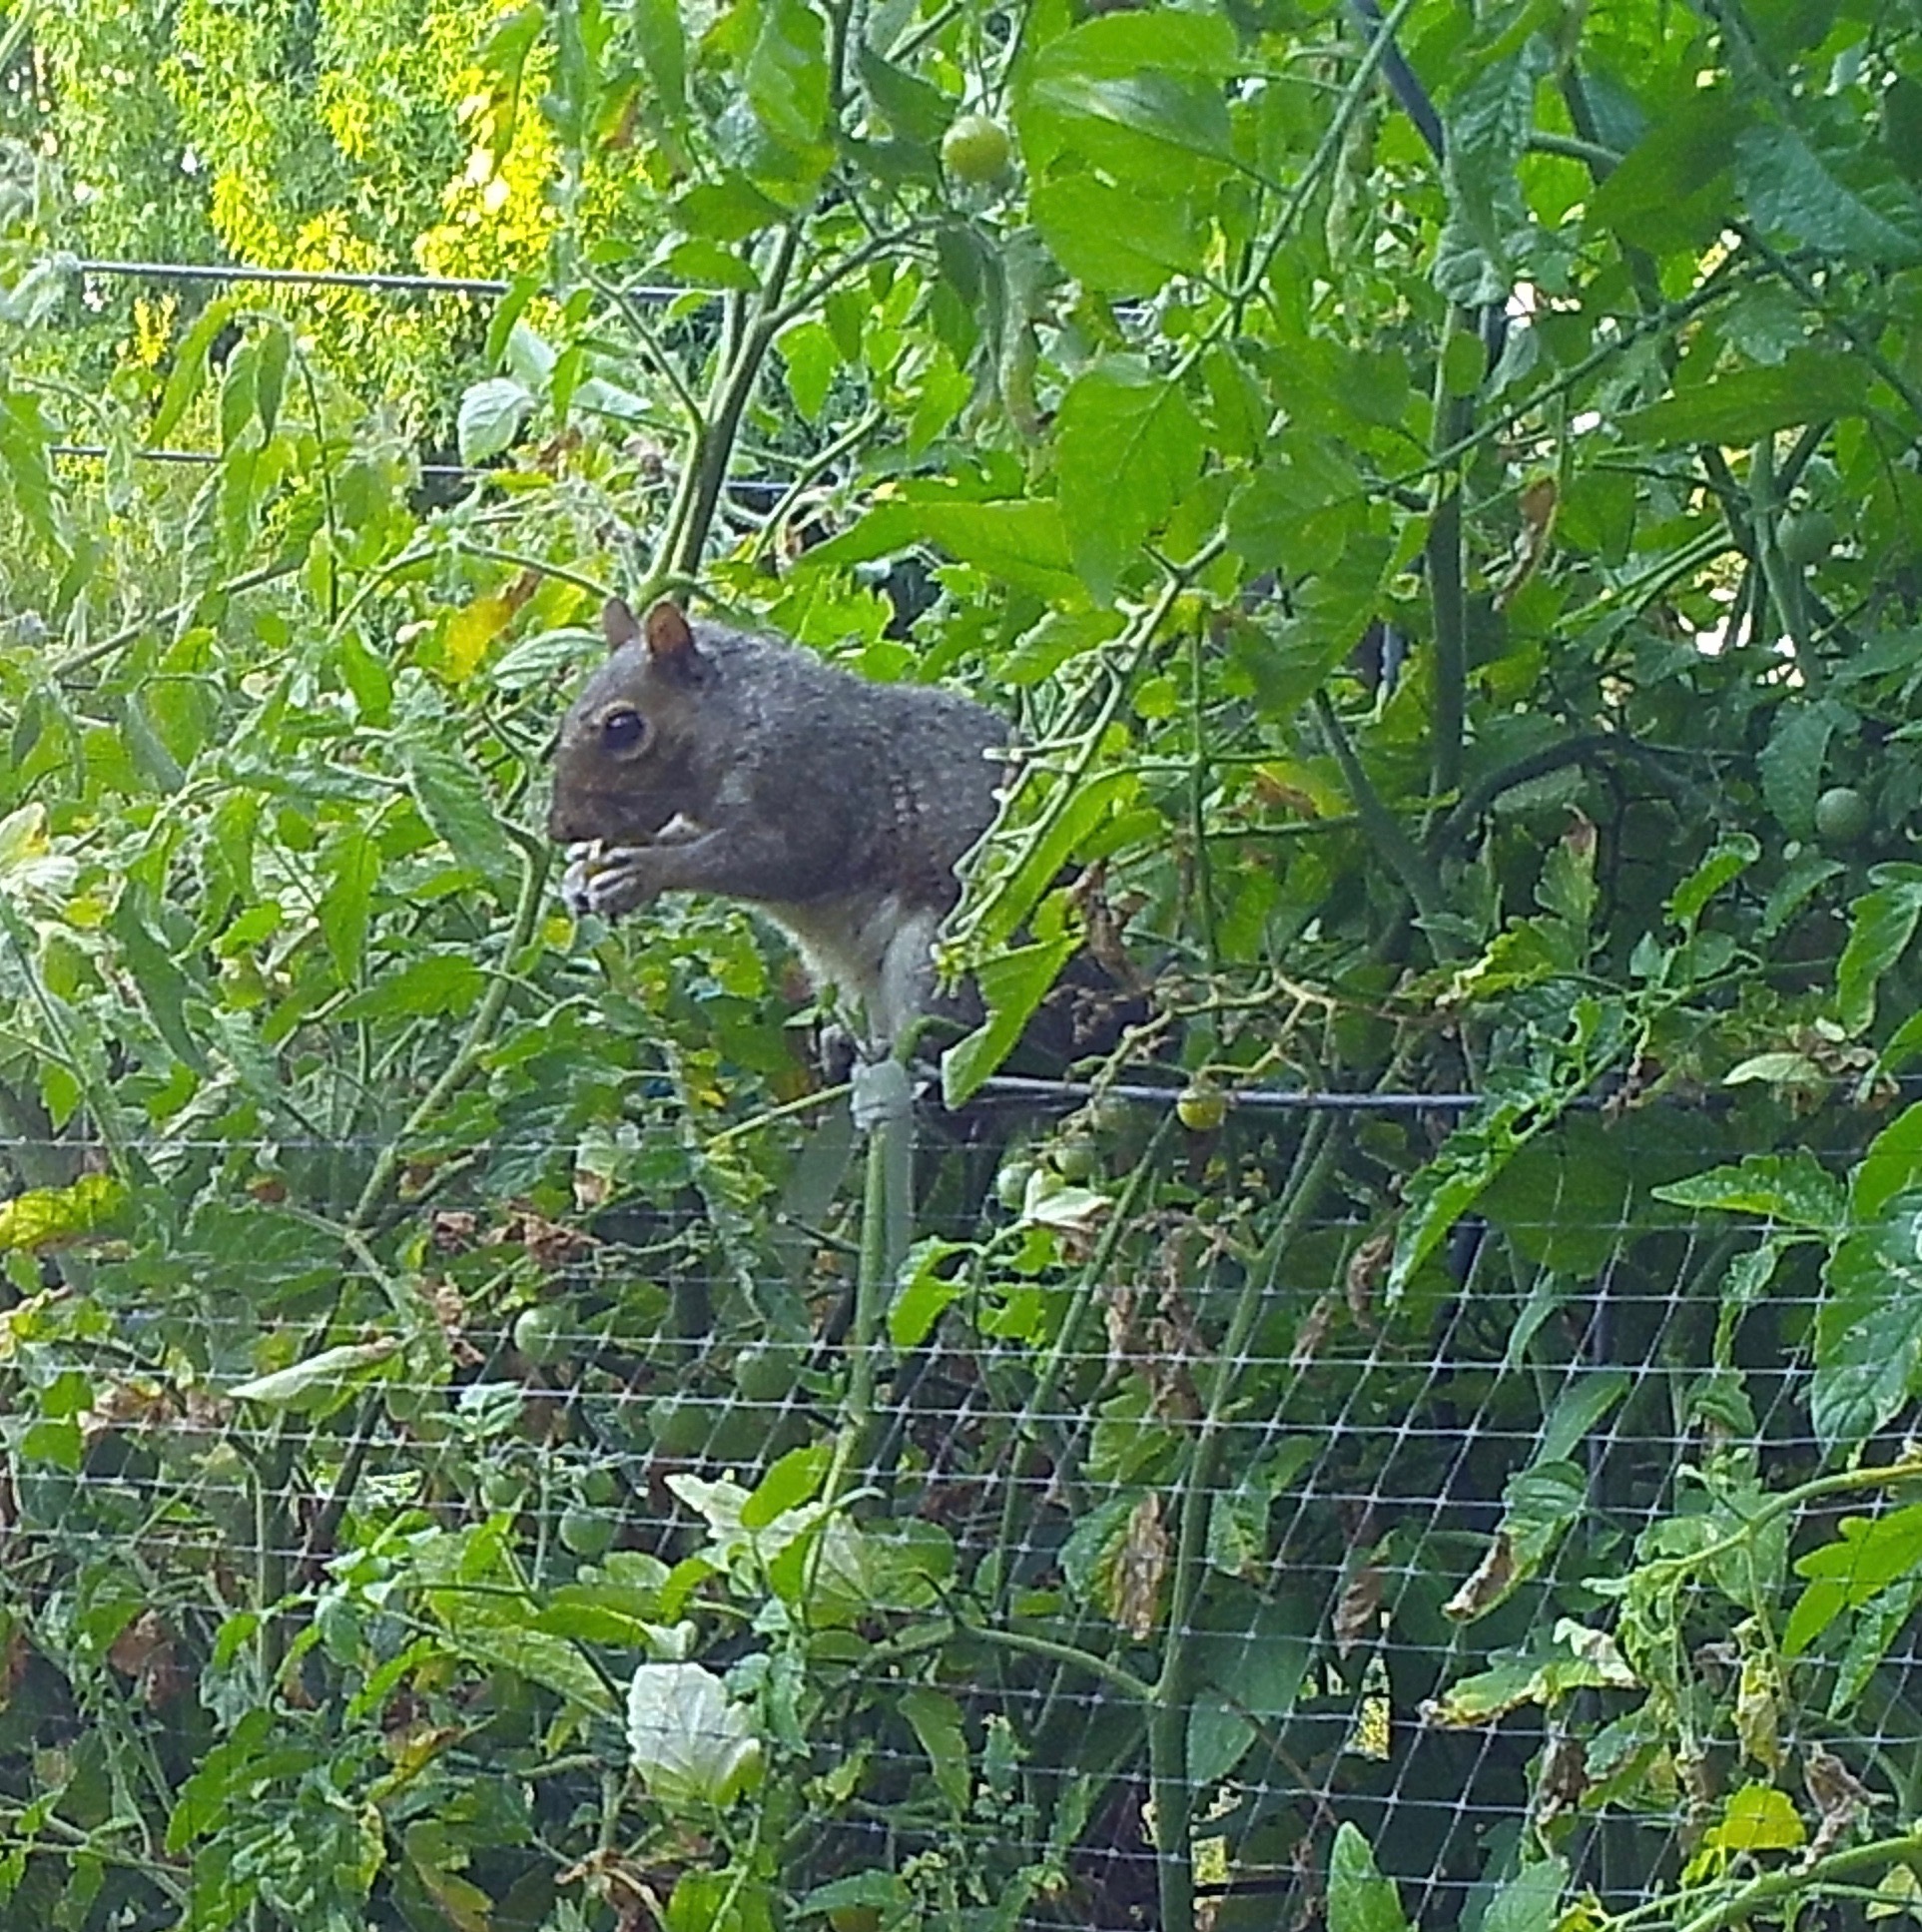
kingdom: Animalia
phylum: Chordata
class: Mammalia
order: Rodentia
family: Sciuridae
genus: Sciurus
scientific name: Sciurus carolinensis
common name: Eastern gray squirrel
